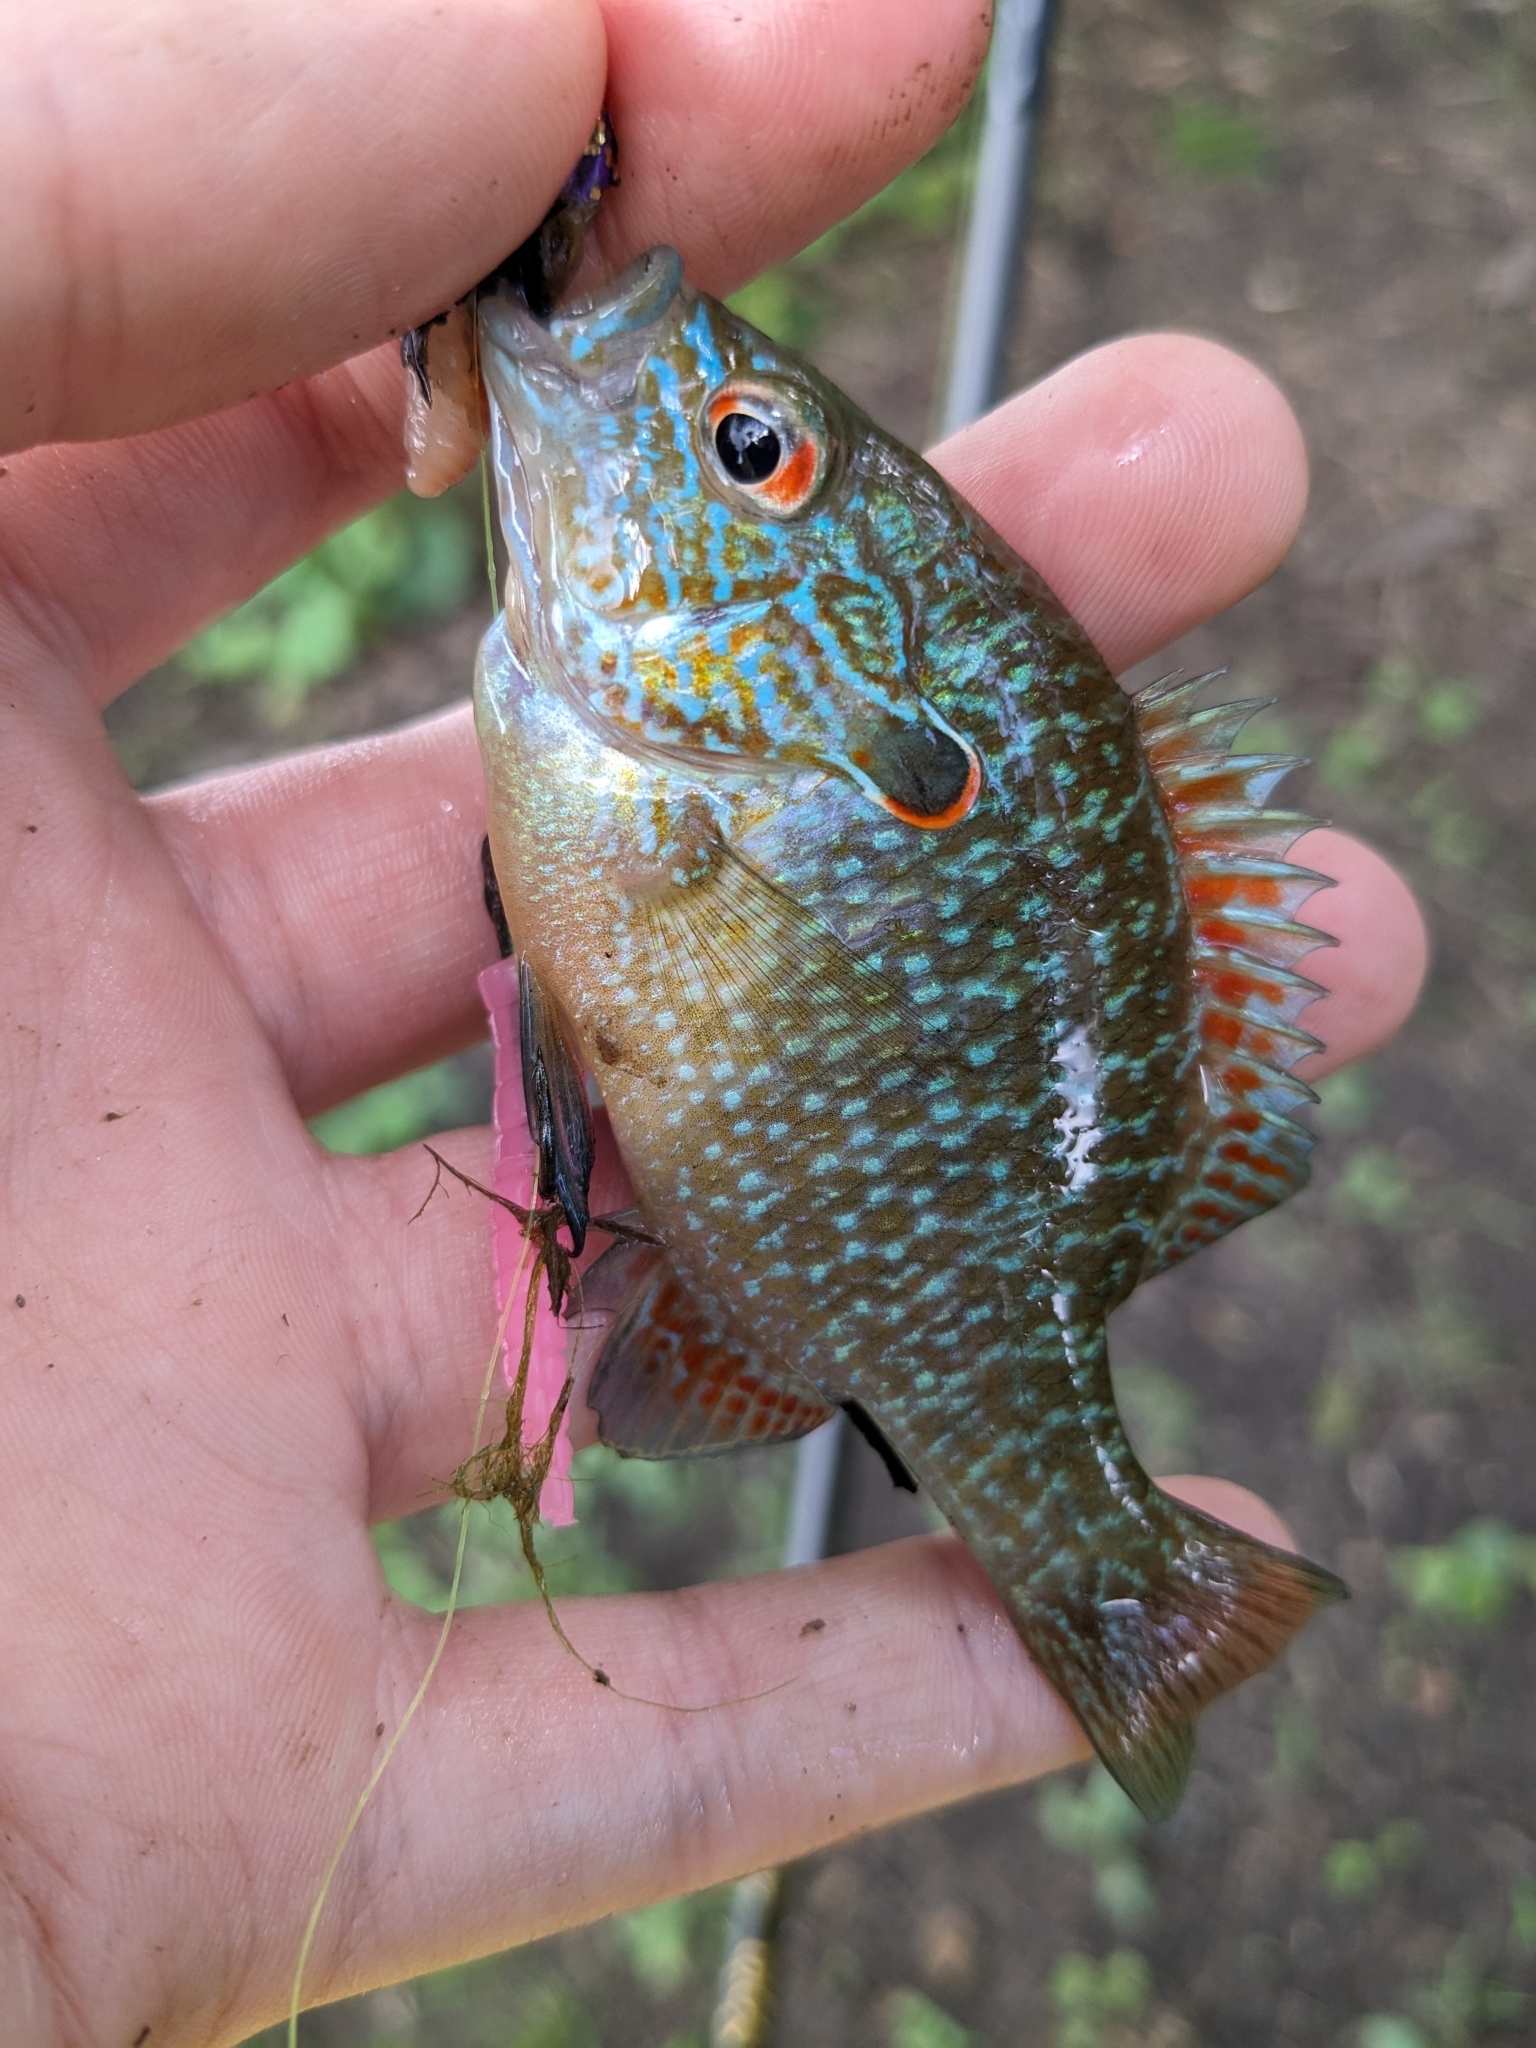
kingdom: Animalia
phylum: Chordata
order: Perciformes
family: Centrarchidae
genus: Lepomis
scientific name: Lepomis peltastes
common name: Northern sunfish
